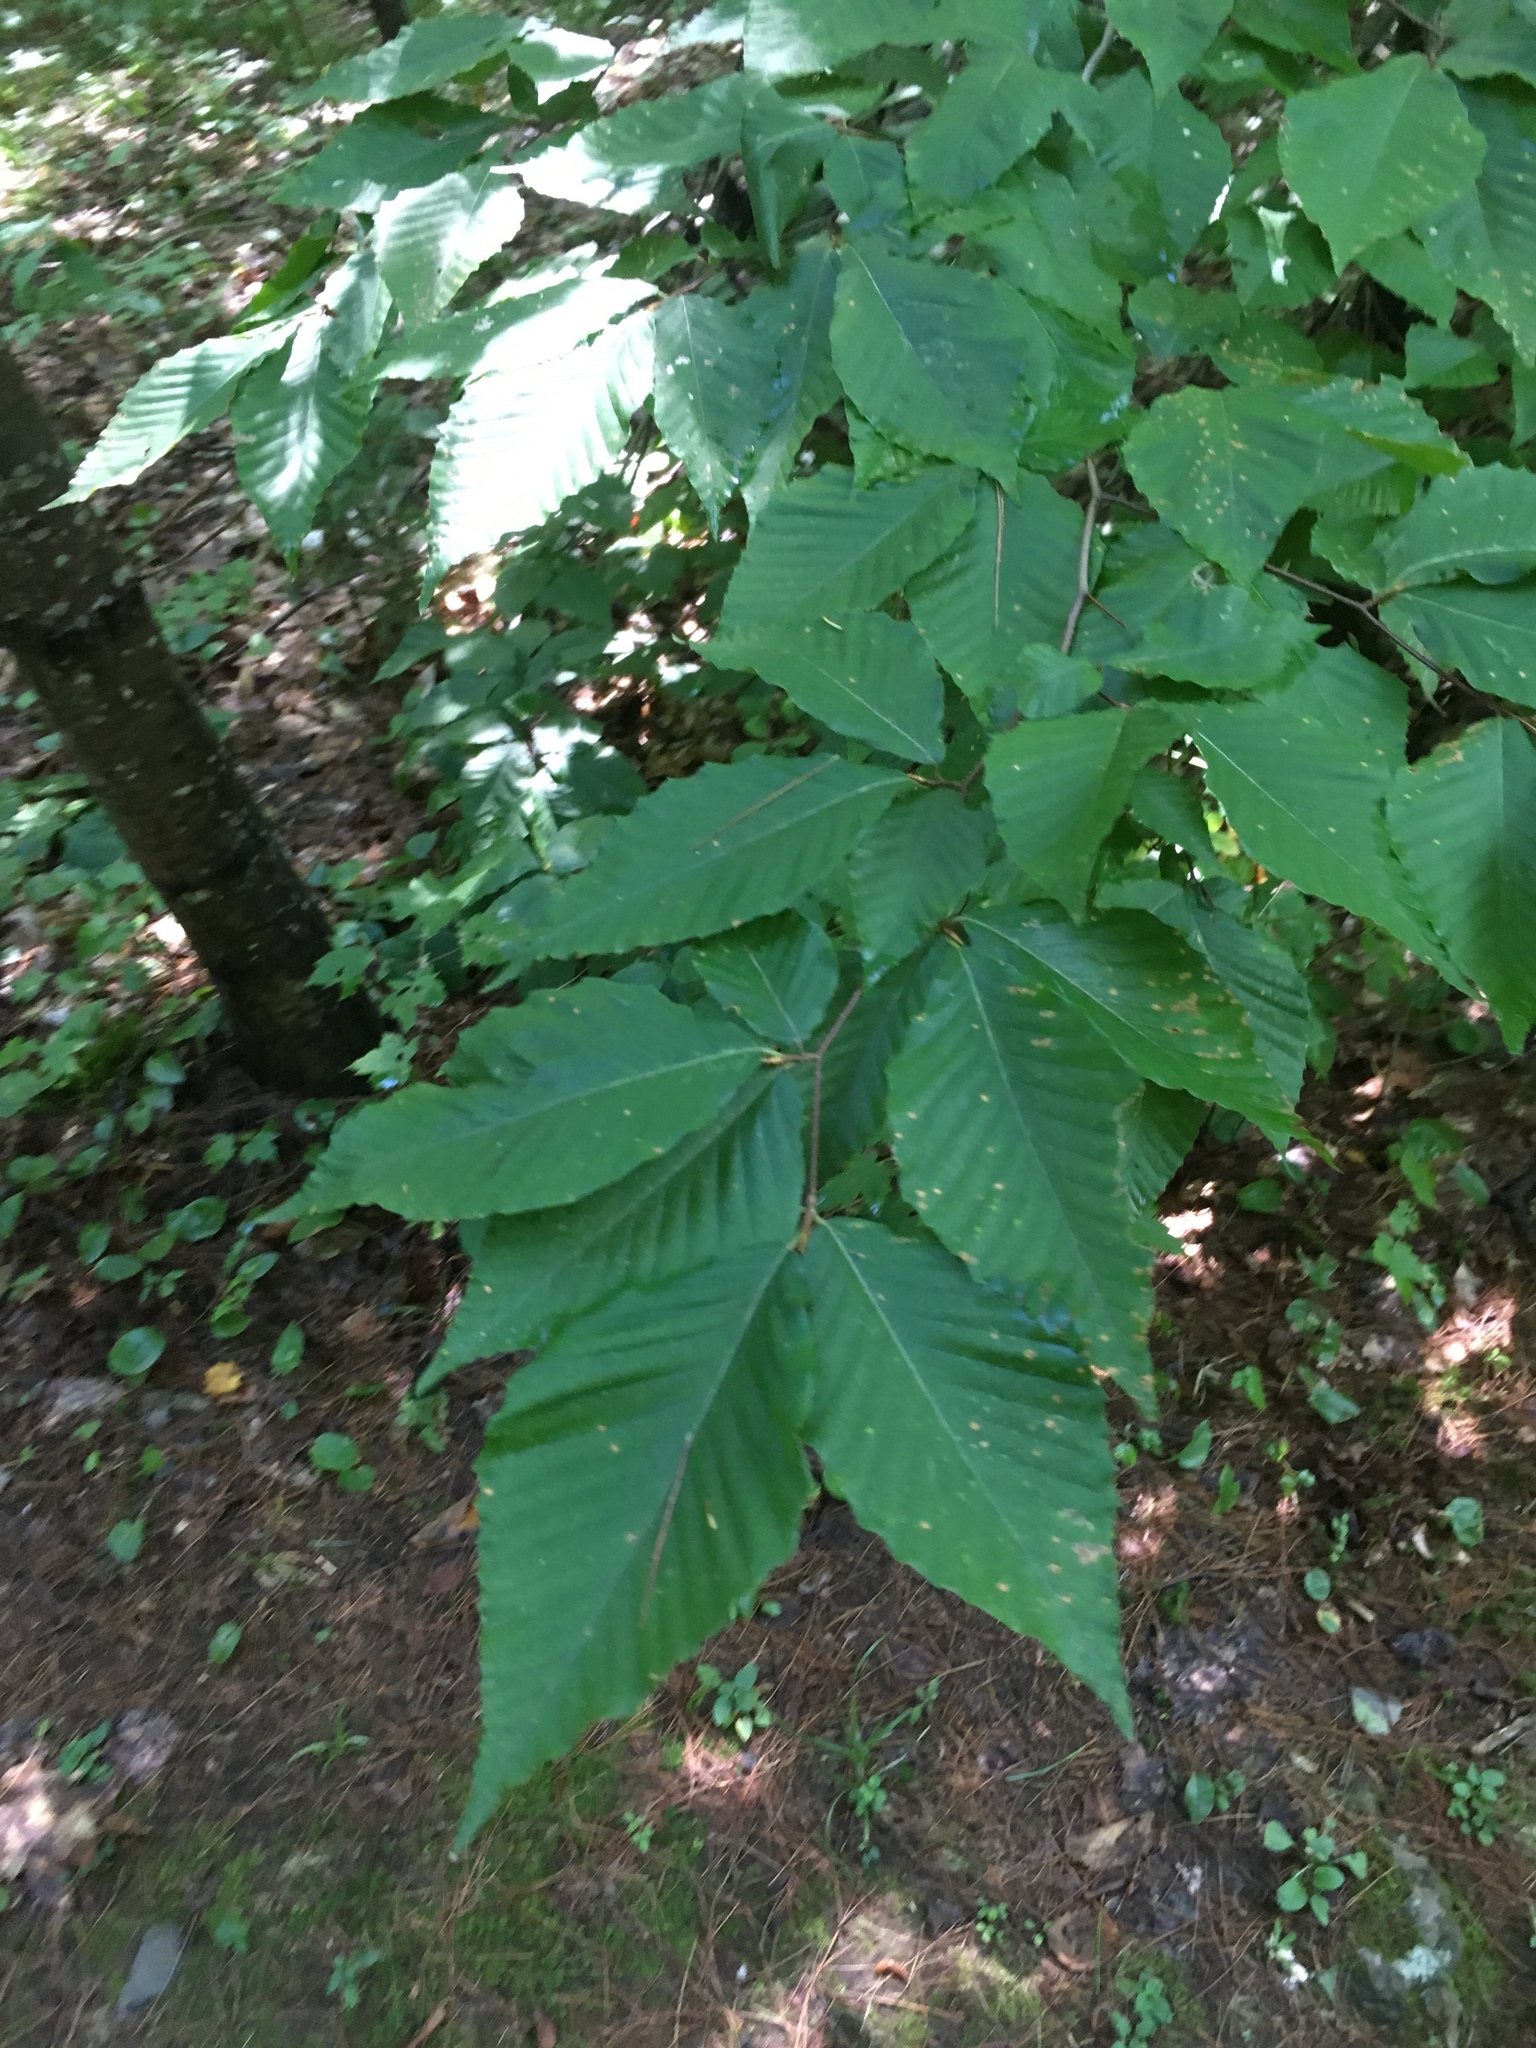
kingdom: Plantae
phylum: Tracheophyta
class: Magnoliopsida
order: Fagales
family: Fagaceae
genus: Fagus
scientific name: Fagus grandifolia
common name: American beech
